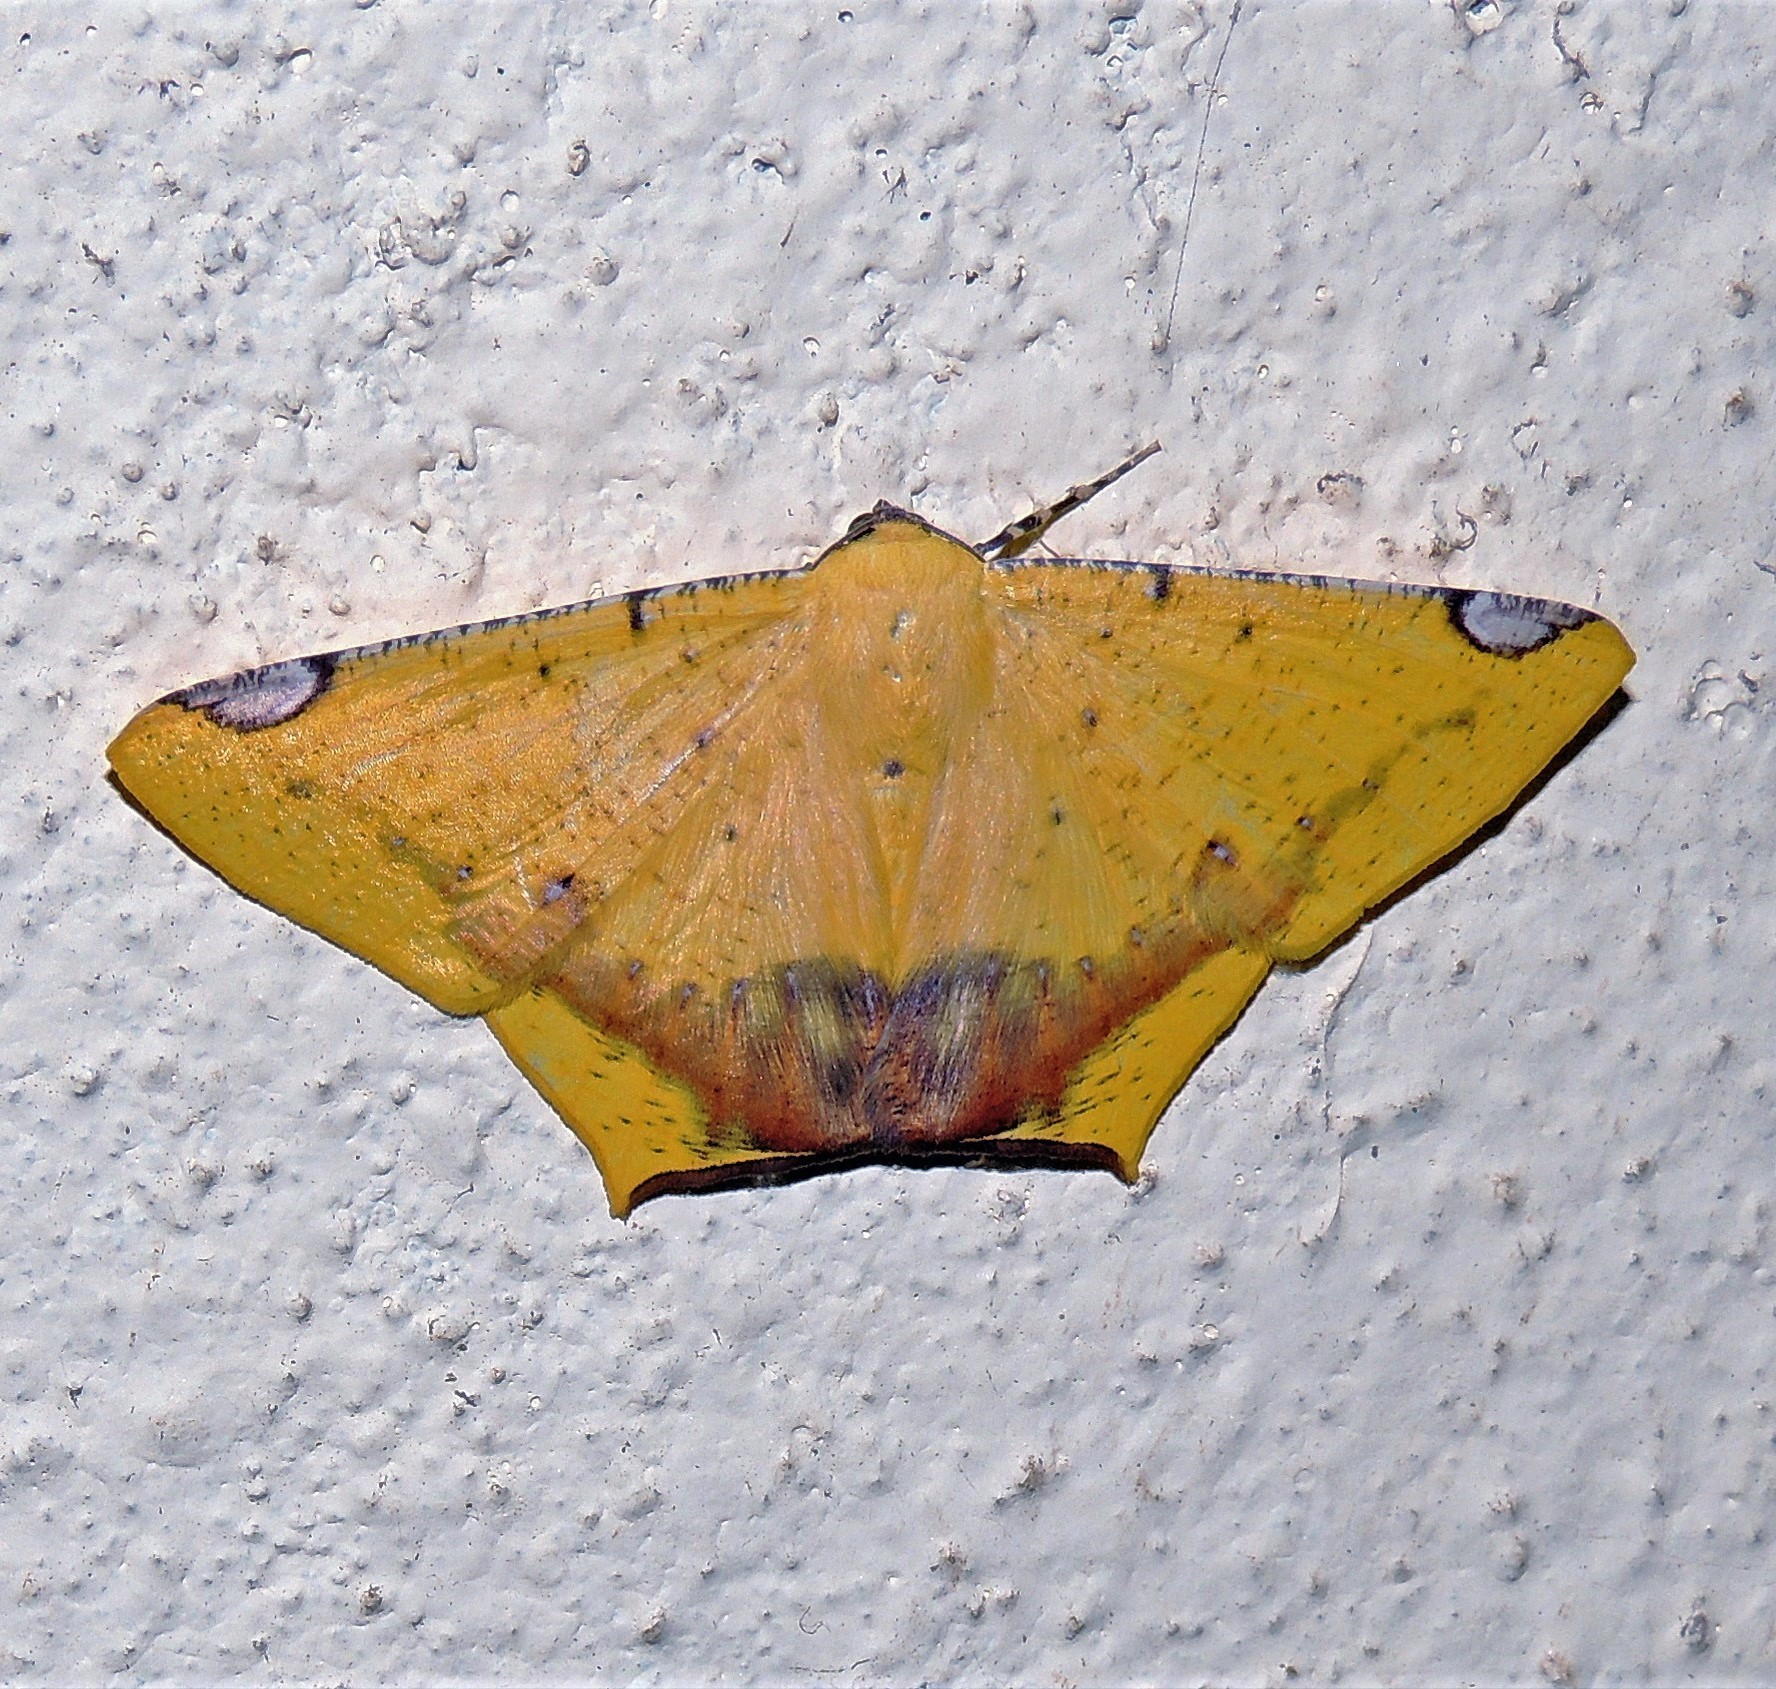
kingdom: Animalia
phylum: Arthropoda
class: Insecta
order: Lepidoptera
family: Geometridae
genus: Nepheloleuca
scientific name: Nepheloleuca politia
